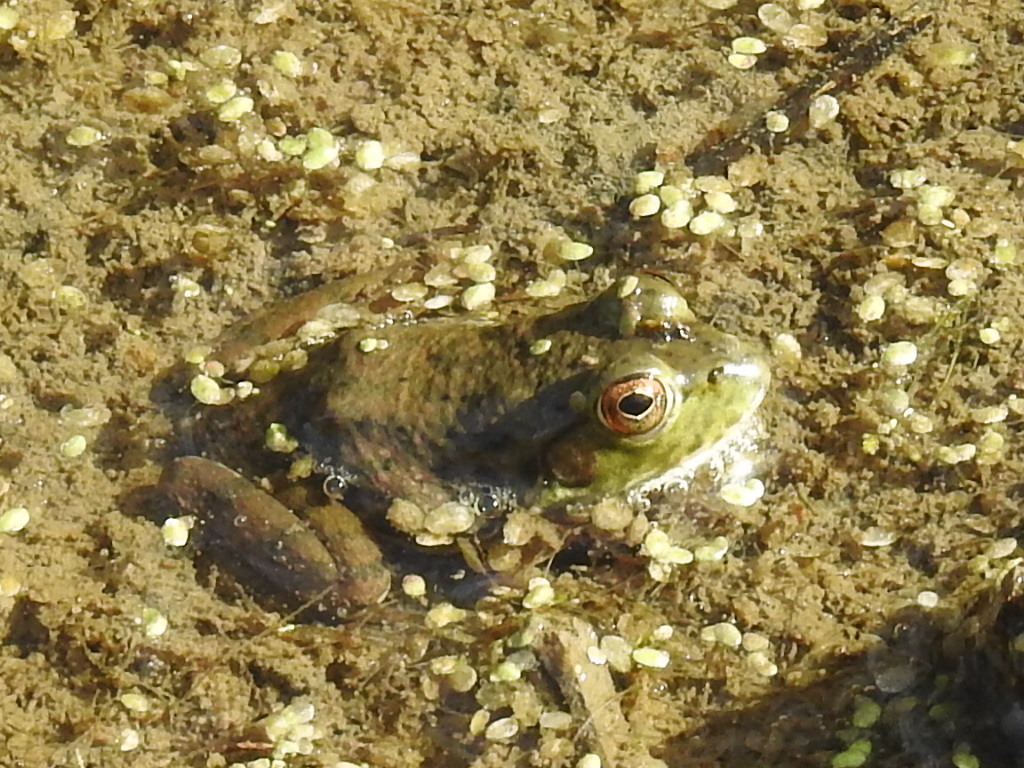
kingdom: Animalia
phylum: Chordata
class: Amphibia
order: Anura
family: Ranidae
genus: Lithobates
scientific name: Lithobates catesbeianus
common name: American bullfrog
